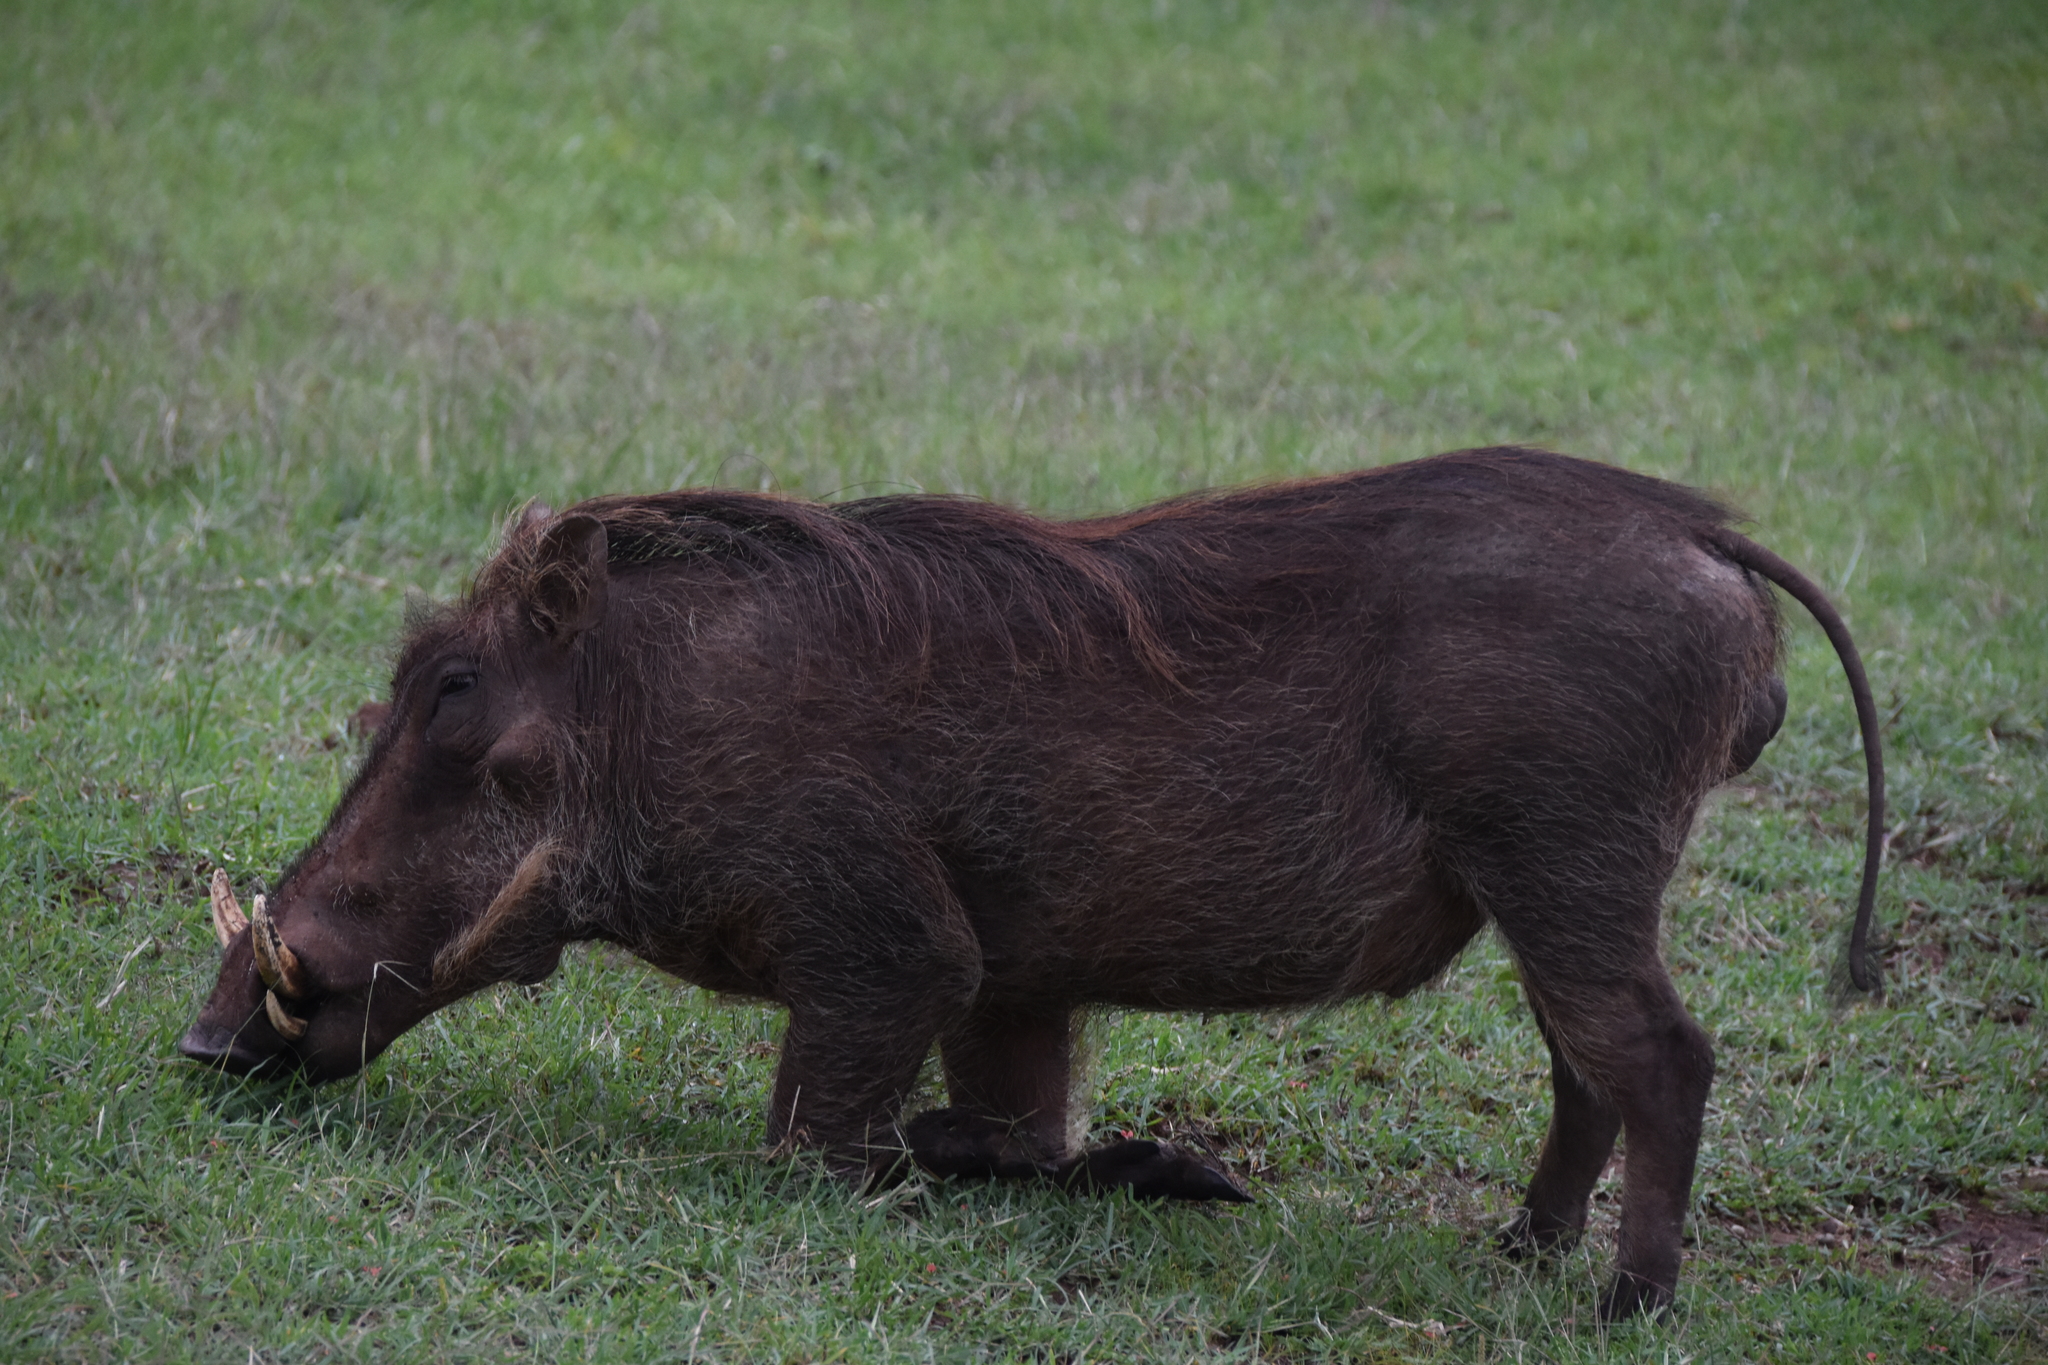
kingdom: Animalia
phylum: Chordata
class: Mammalia
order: Artiodactyla
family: Suidae
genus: Phacochoerus
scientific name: Phacochoerus africanus
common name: Common warthog
